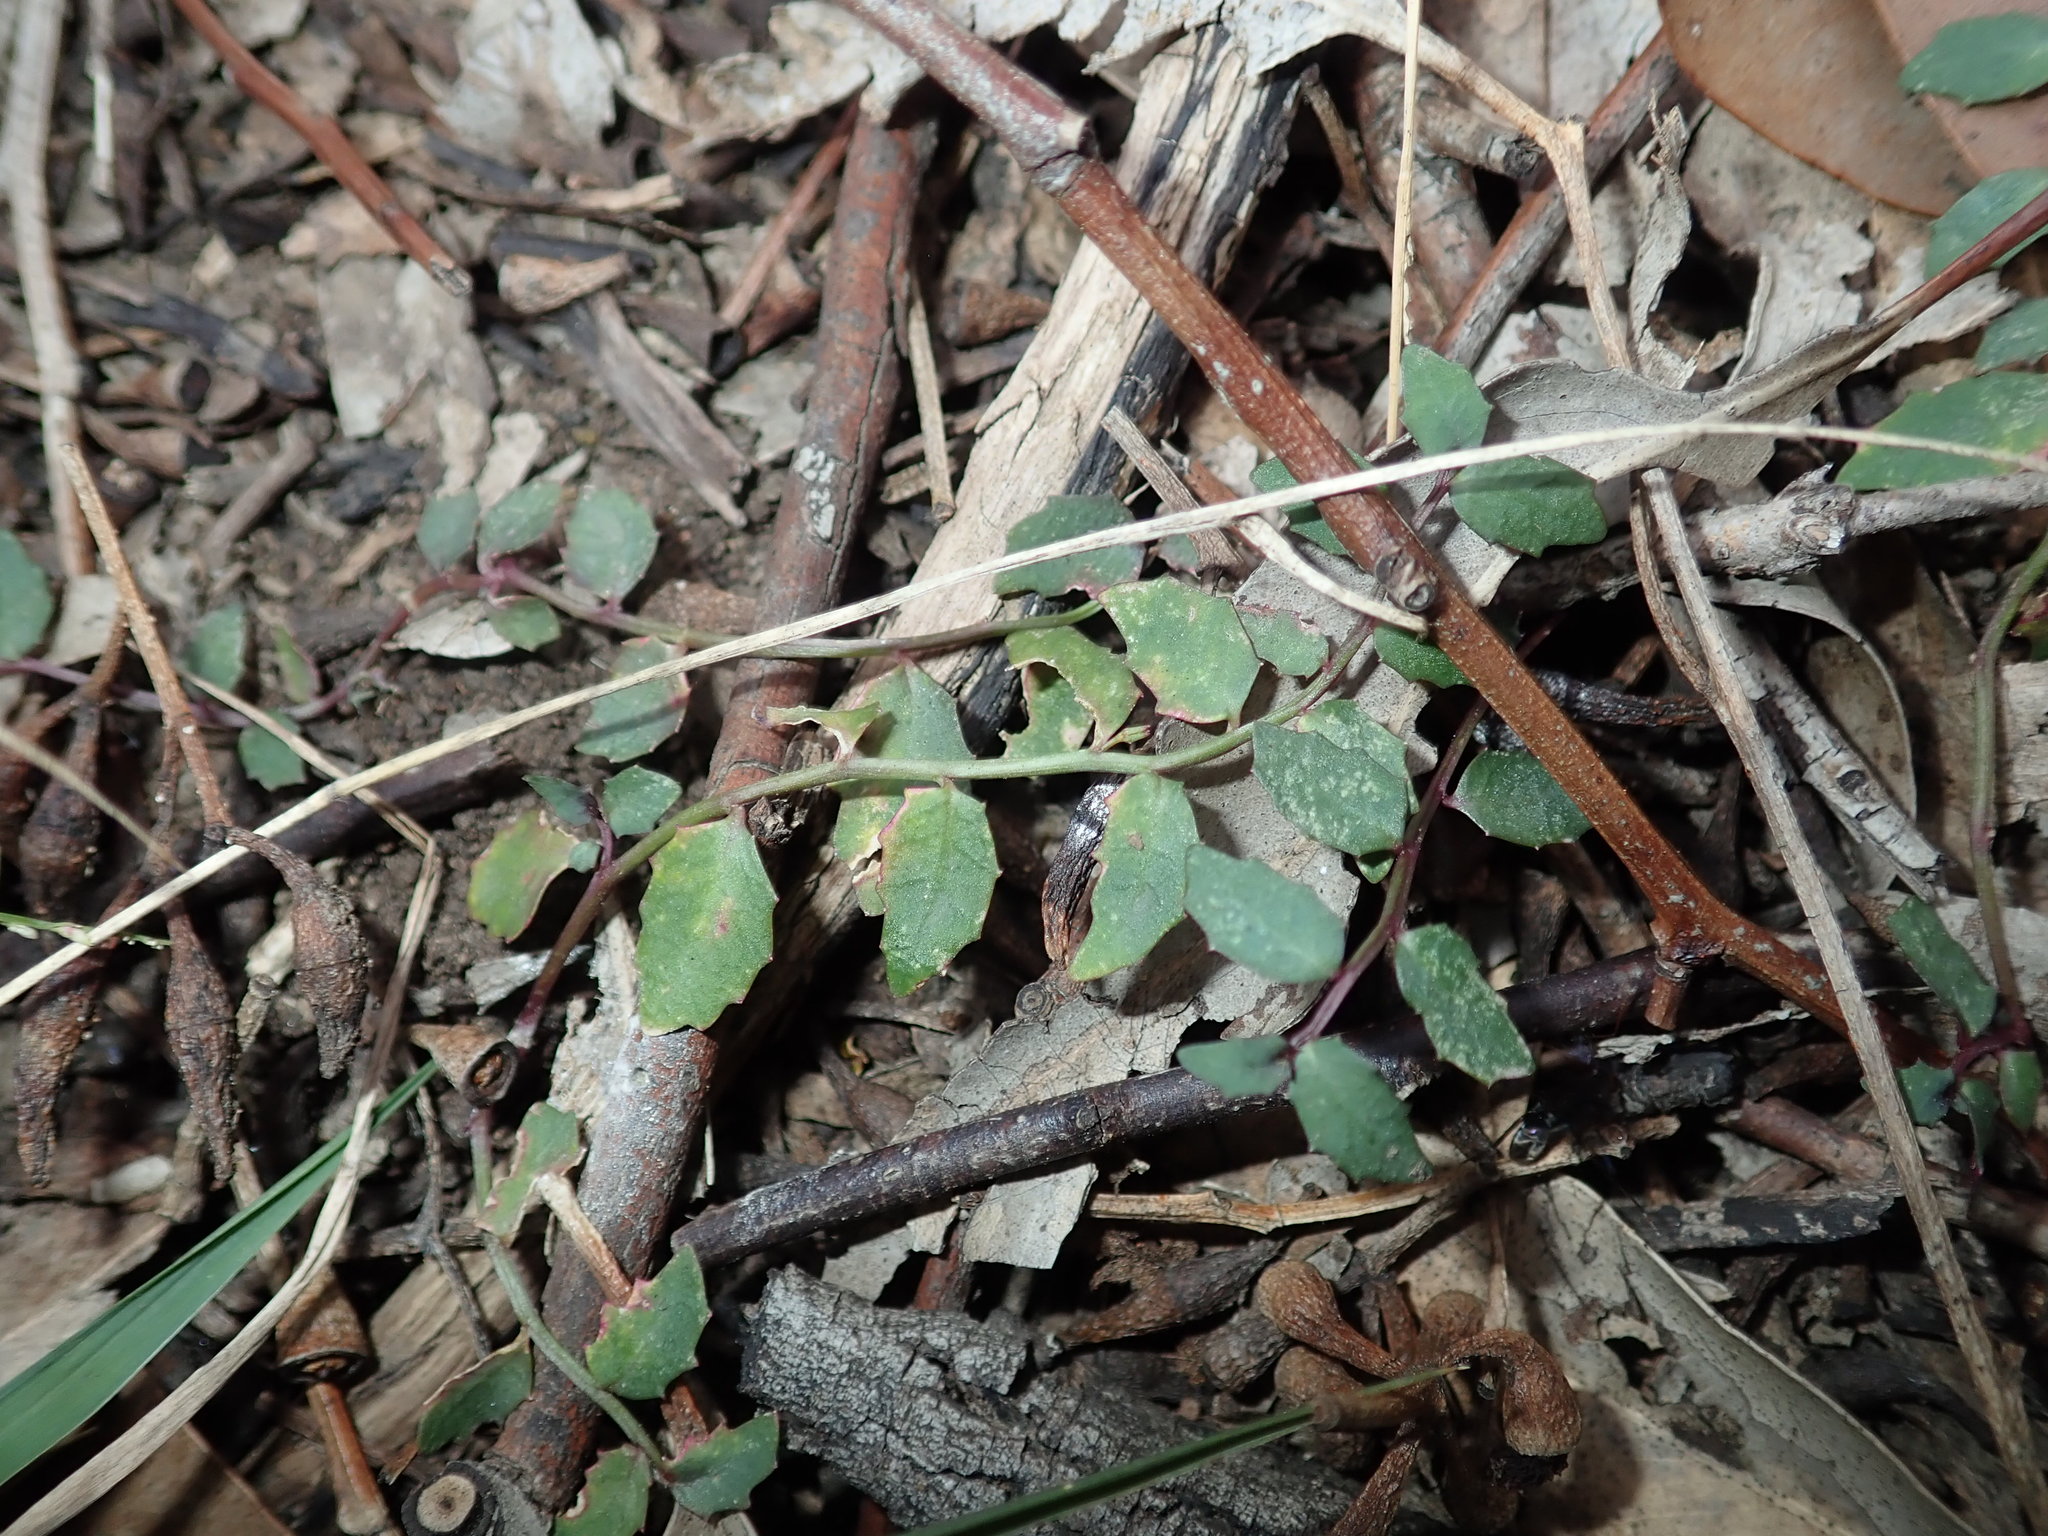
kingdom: Plantae
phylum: Tracheophyta
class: Magnoliopsida
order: Asterales
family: Campanulaceae
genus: Lobelia
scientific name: Lobelia purpurascens
